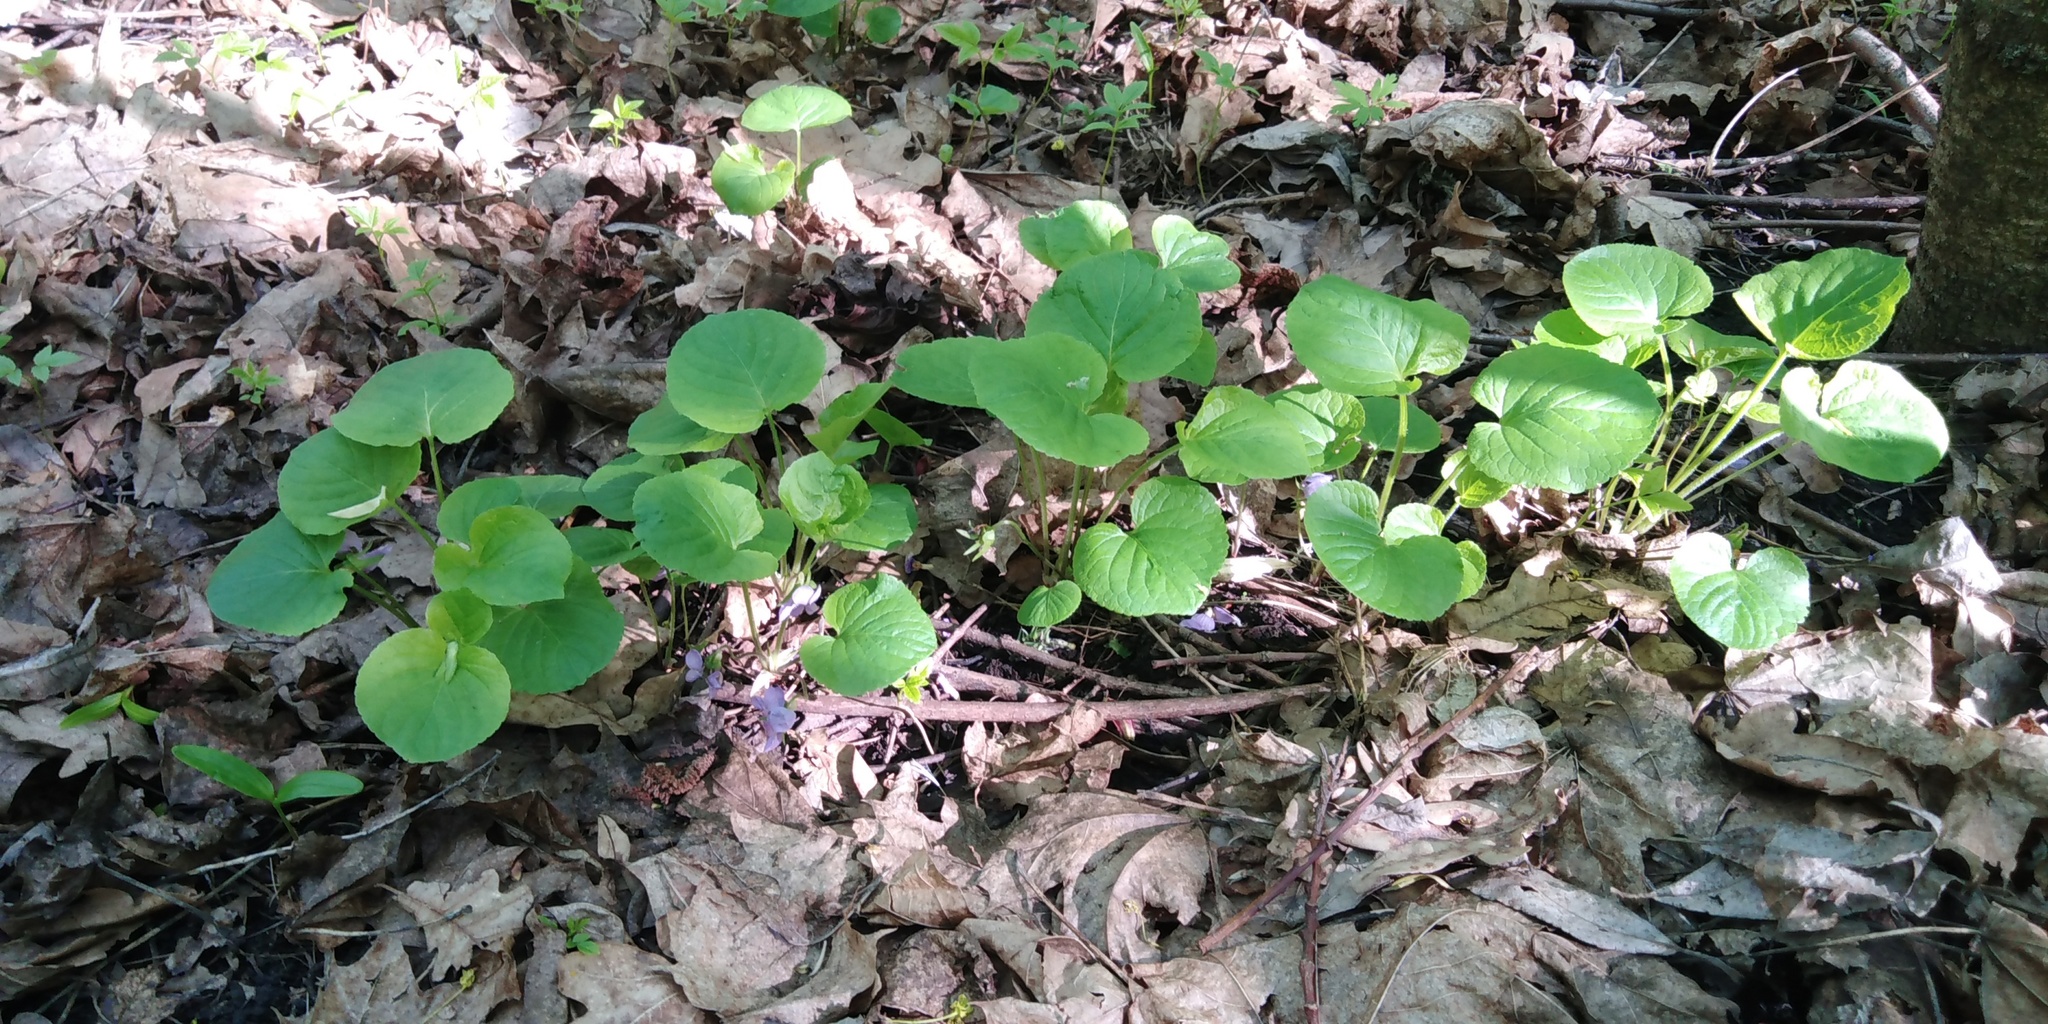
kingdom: Plantae
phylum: Tracheophyta
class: Magnoliopsida
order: Malpighiales
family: Violaceae
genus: Viola
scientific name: Viola mirabilis
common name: Wonder violet
